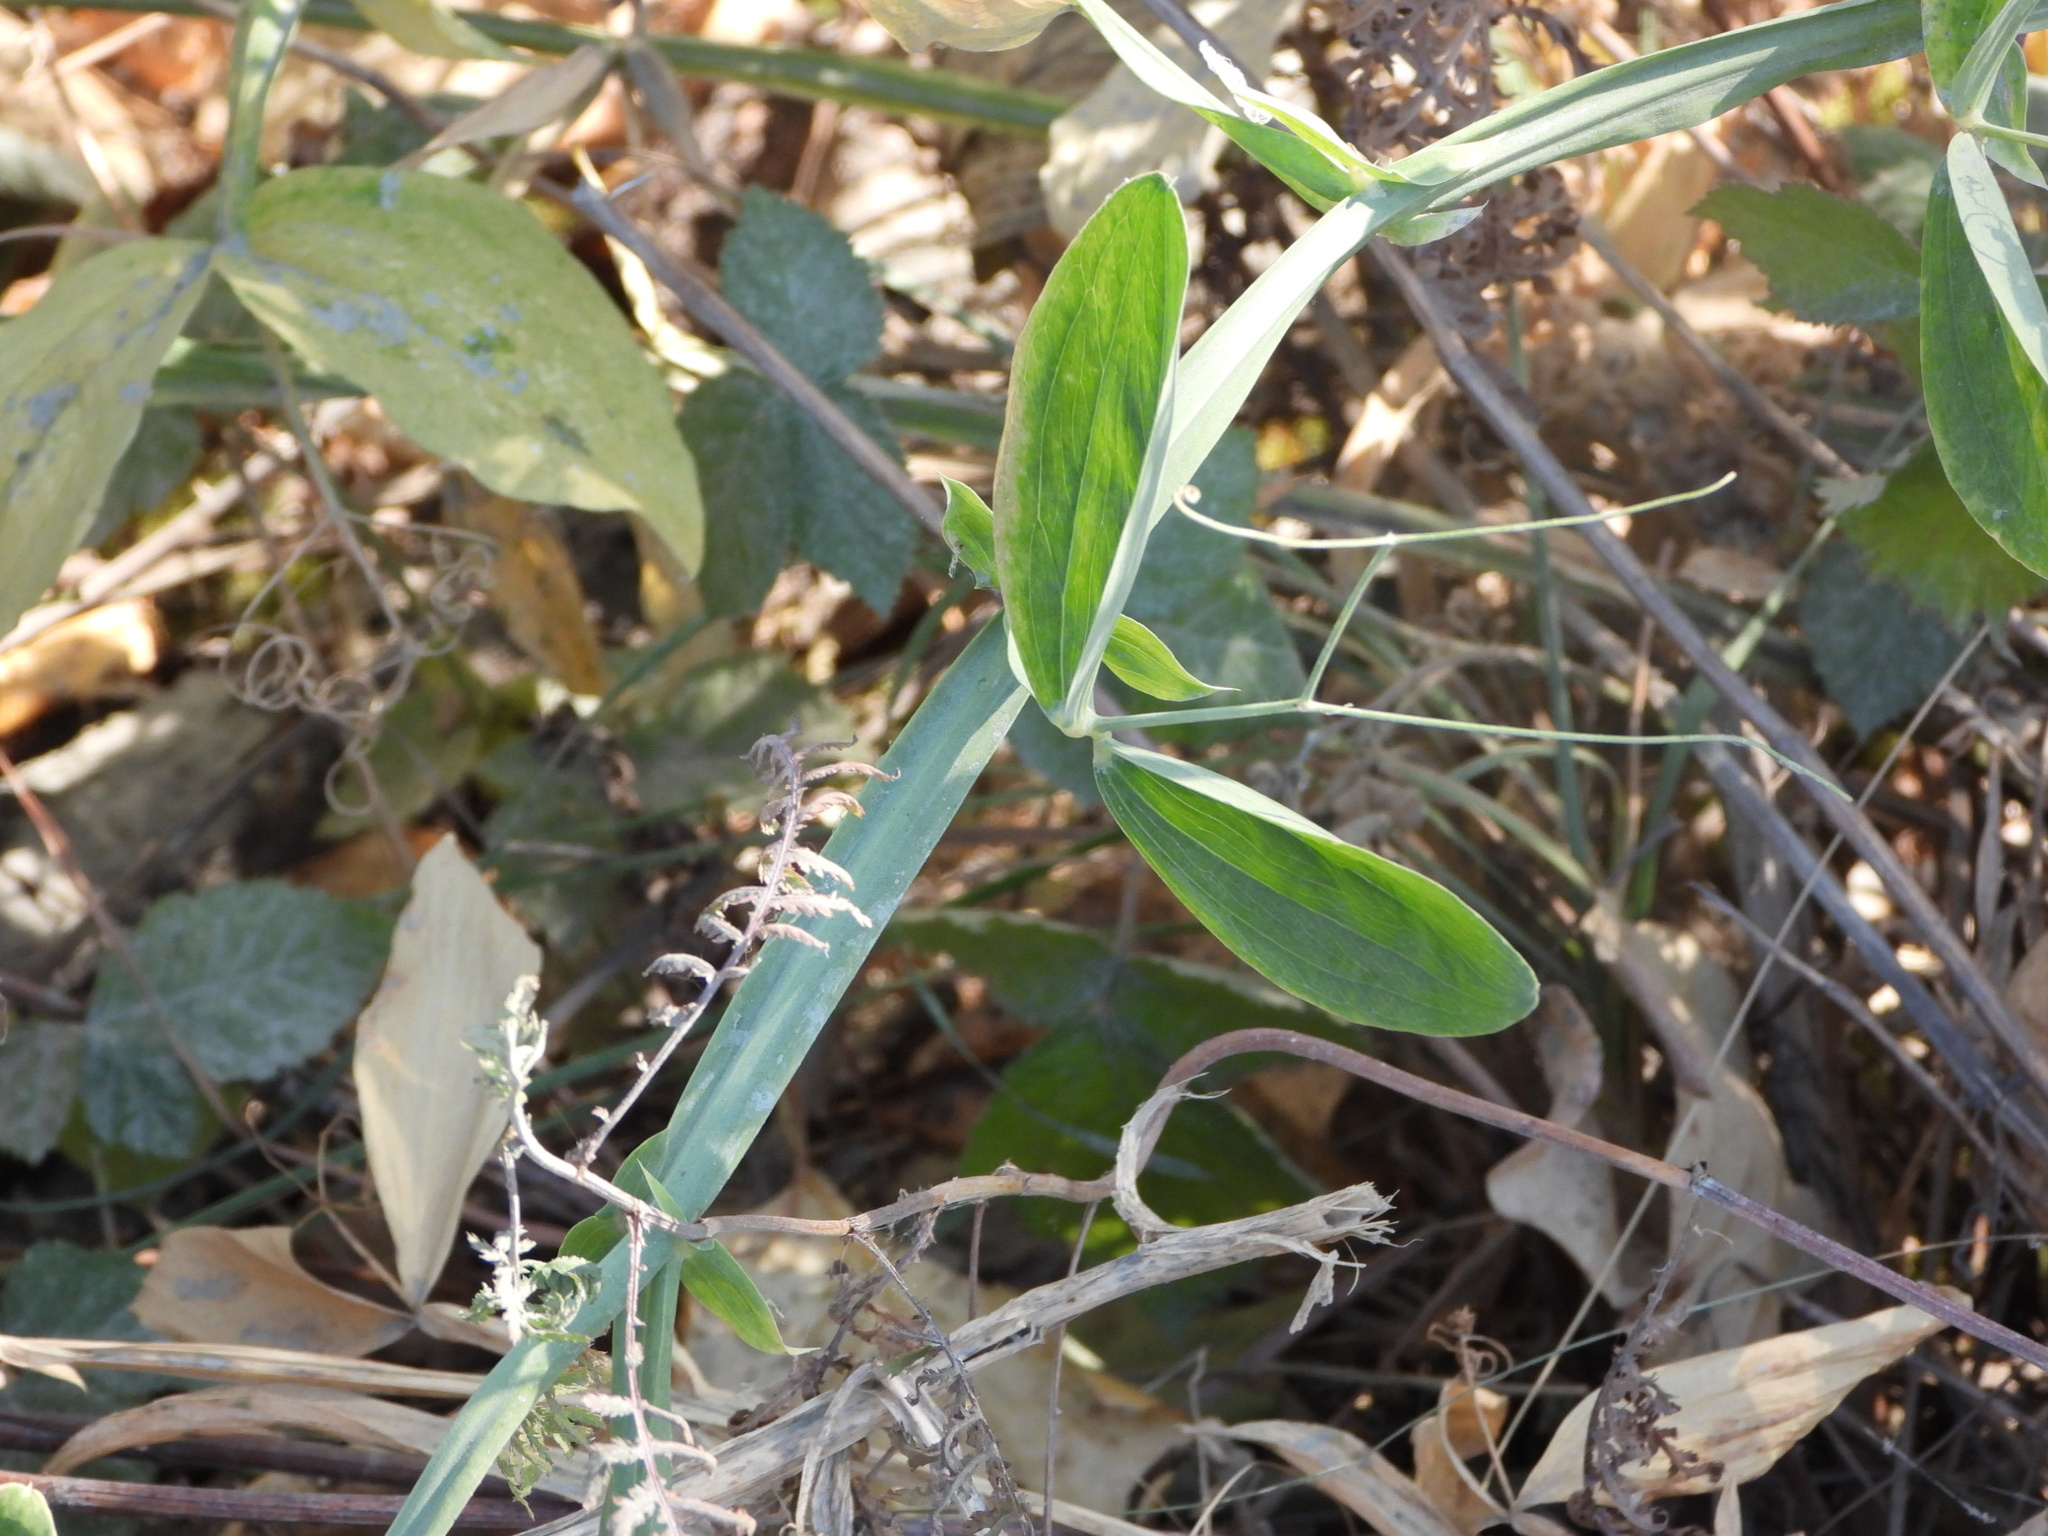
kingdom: Plantae
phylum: Tracheophyta
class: Magnoliopsida
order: Fabales
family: Fabaceae
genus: Lathyrus
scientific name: Lathyrus latifolius
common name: Perennial pea
